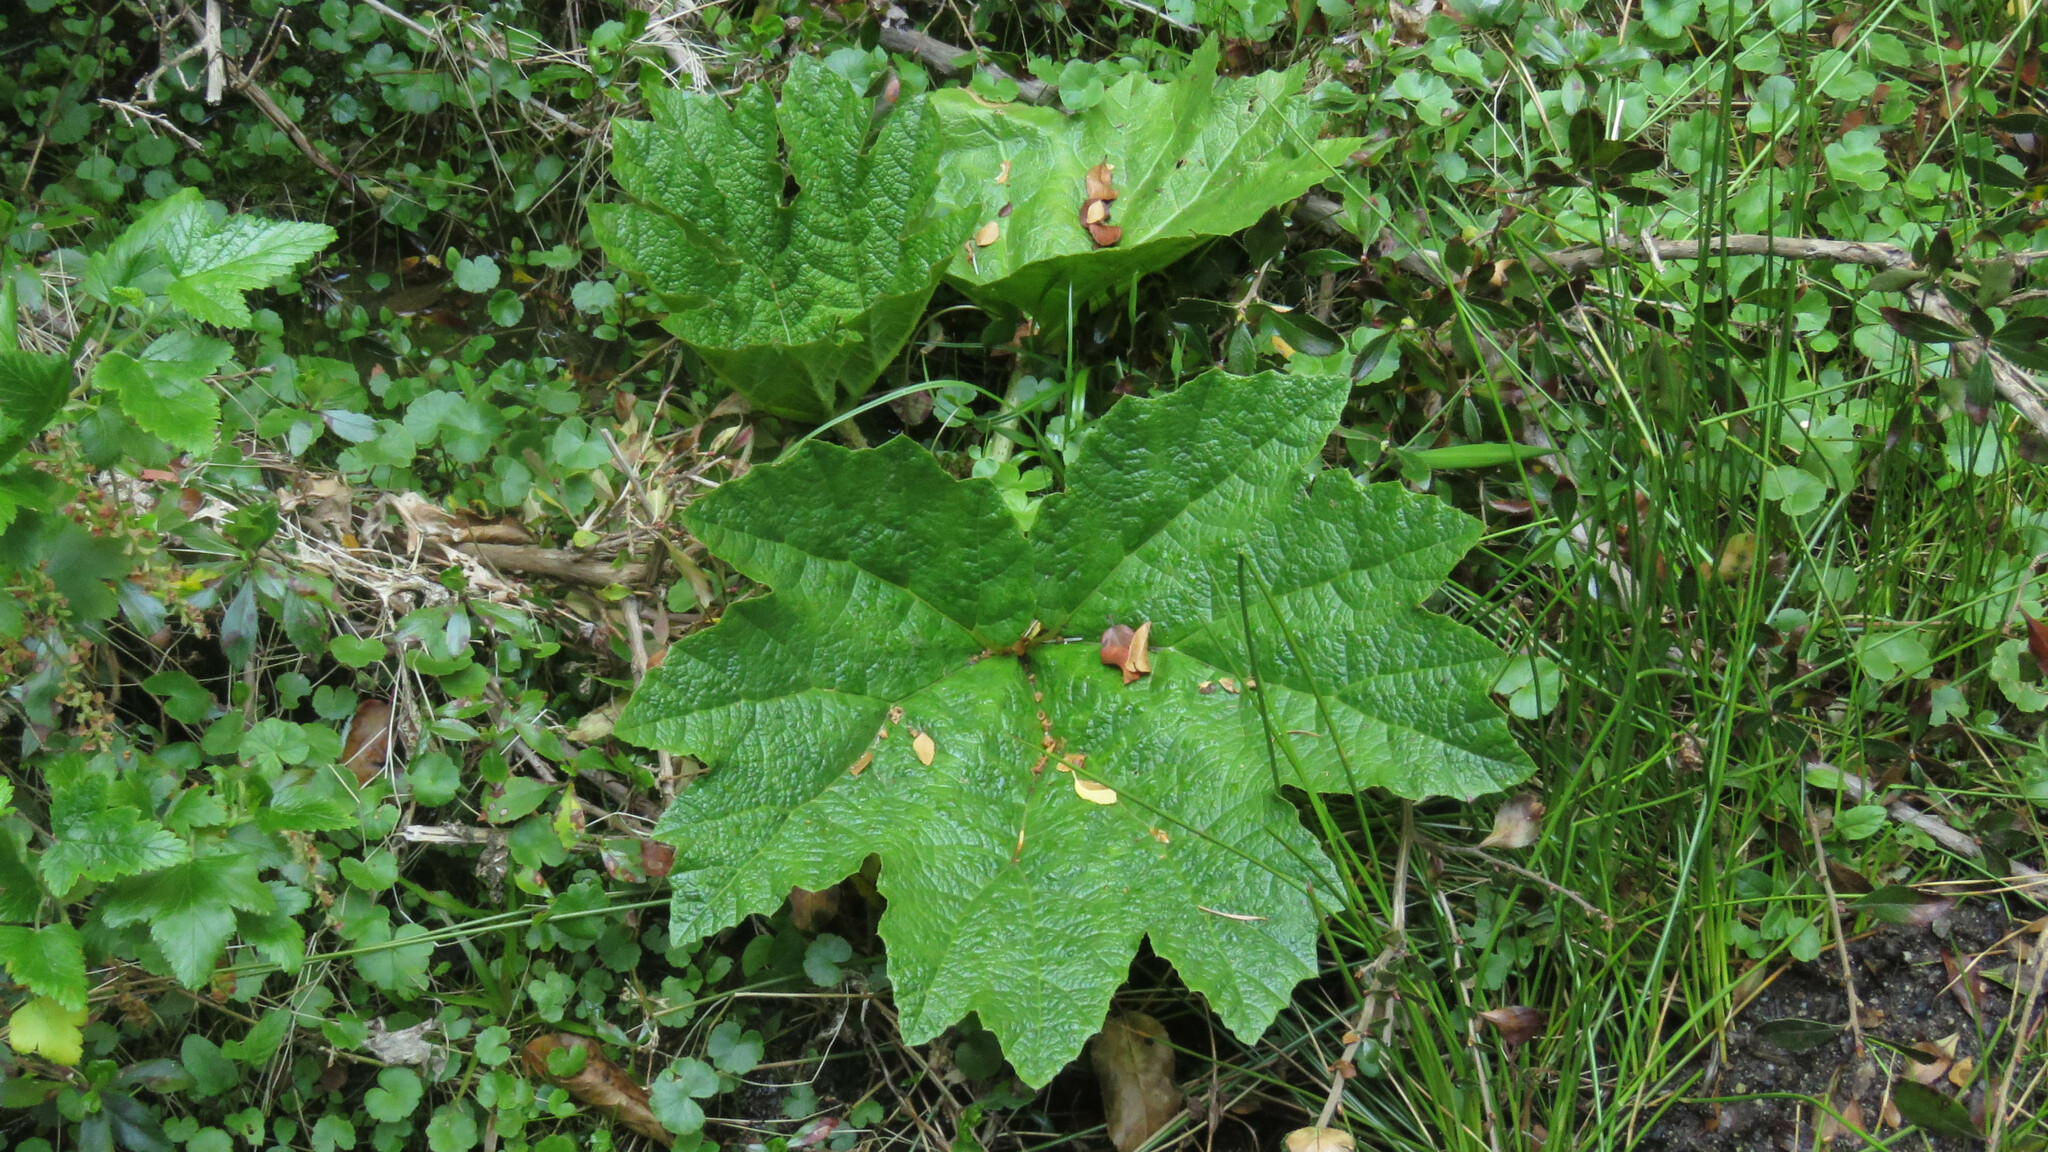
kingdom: Plantae
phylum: Tracheophyta
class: Magnoliopsida
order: Gunnerales
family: Gunneraceae
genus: Gunnera
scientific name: Gunnera tinctoria
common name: Giant-rhubarb
